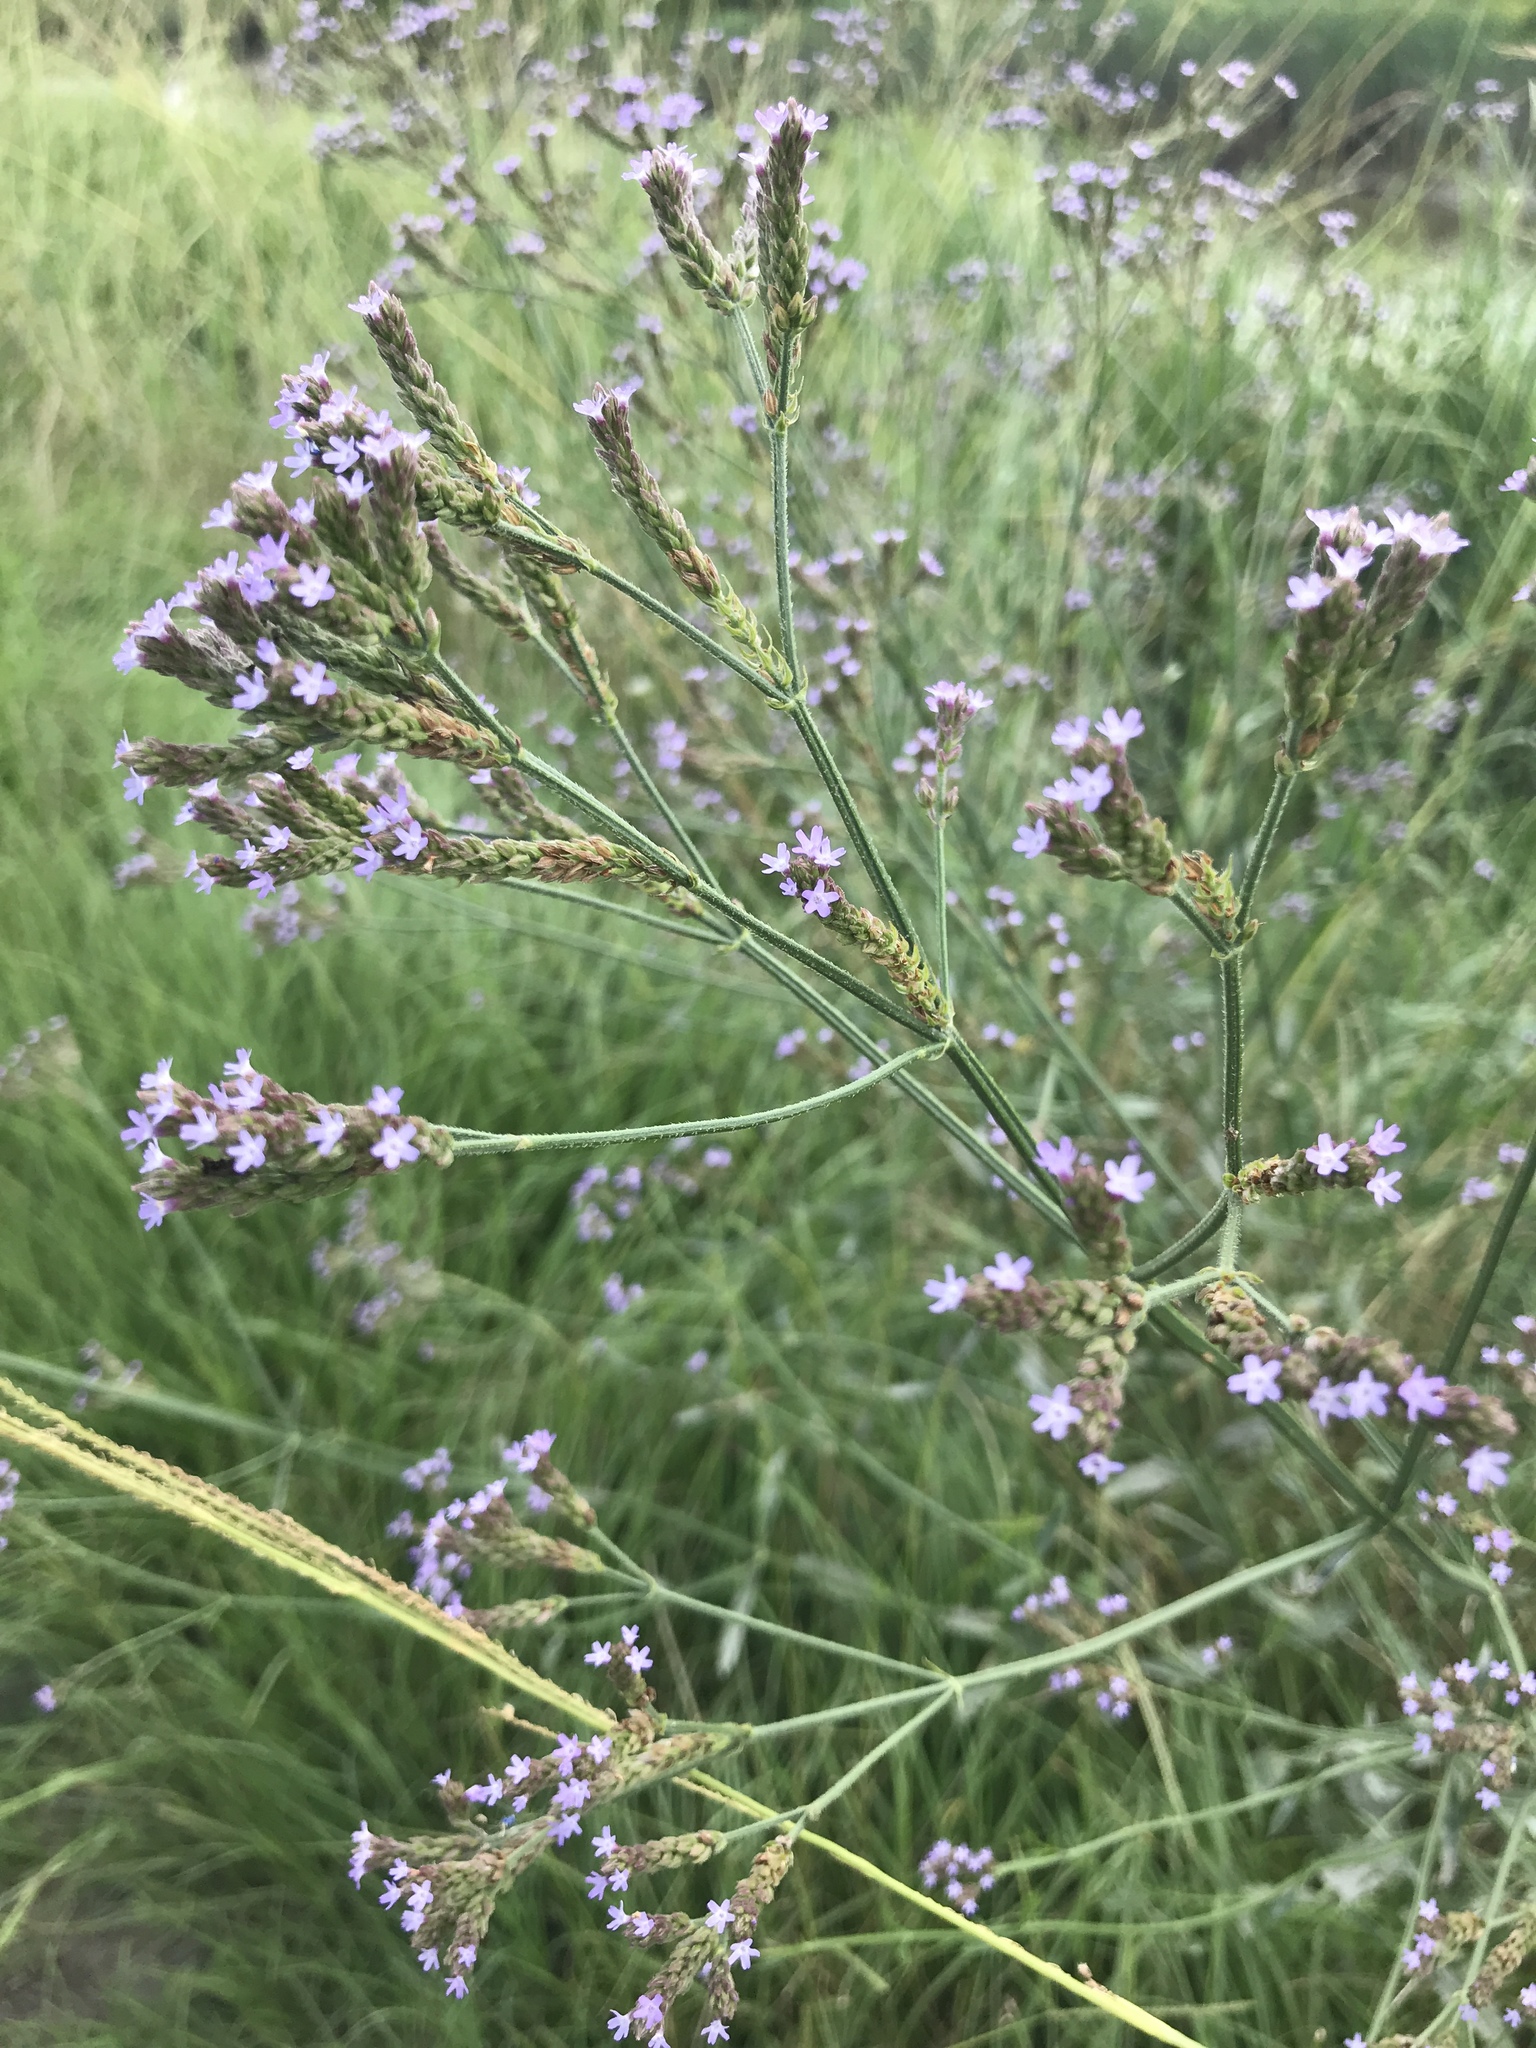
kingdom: Plantae
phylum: Tracheophyta
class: Magnoliopsida
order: Lamiales
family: Verbenaceae
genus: Verbena
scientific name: Verbena brasiliensis
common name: Brazilian vervain
